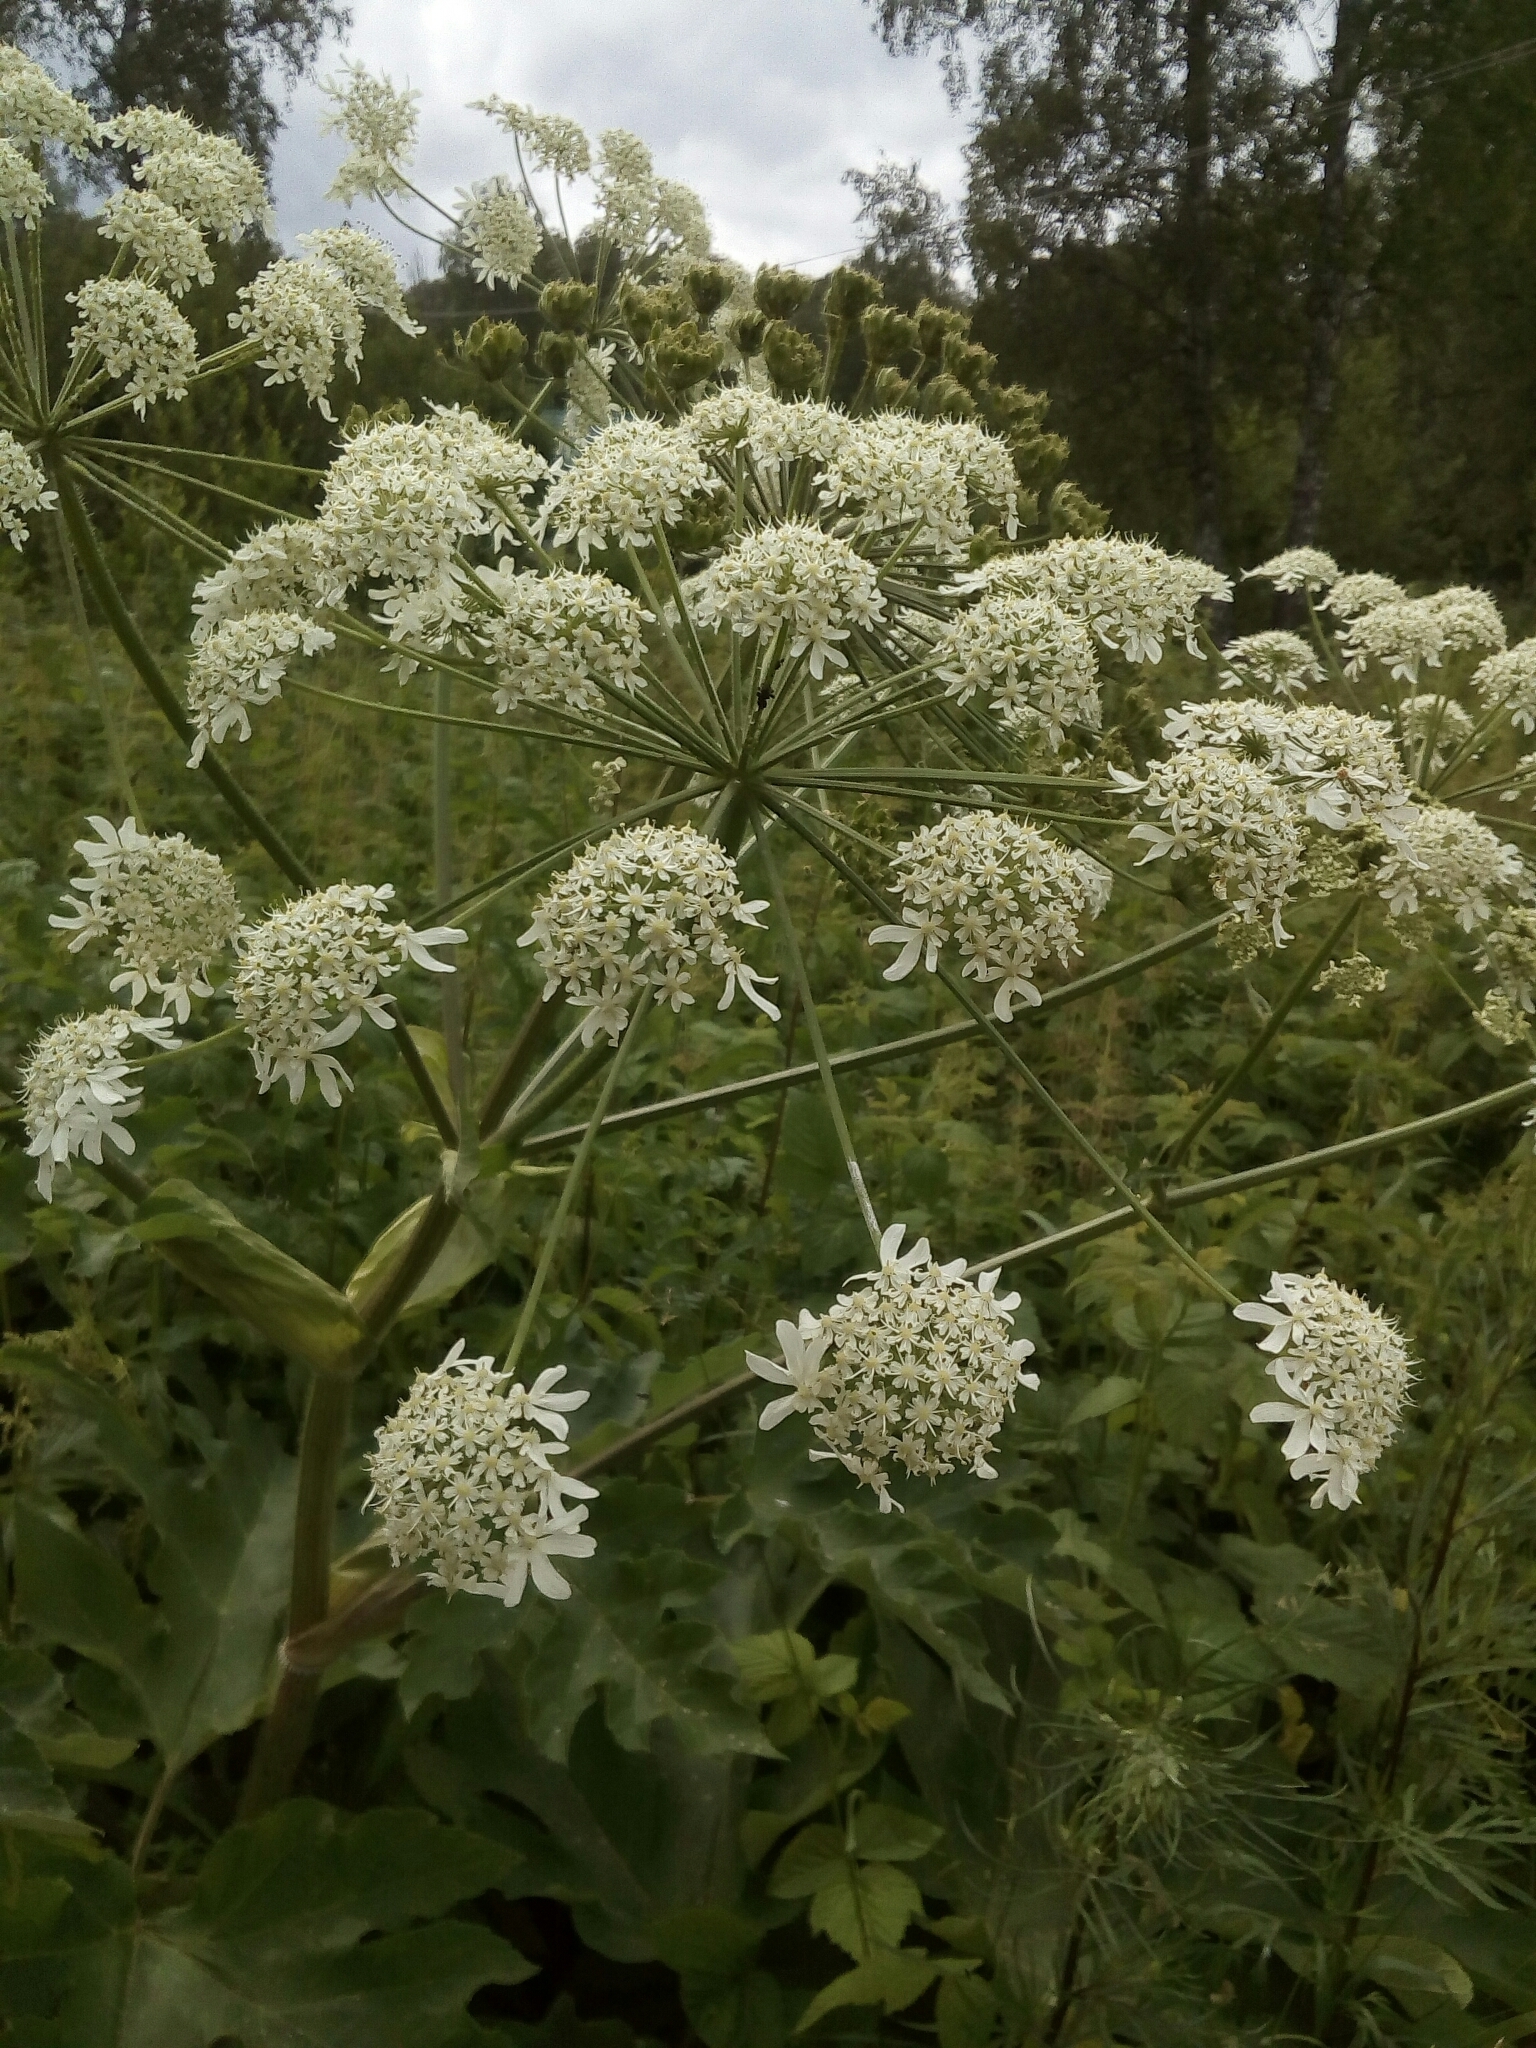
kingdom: Plantae
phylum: Tracheophyta
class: Magnoliopsida
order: Apiales
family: Apiaceae
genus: Heracleum
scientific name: Heracleum dissectum
